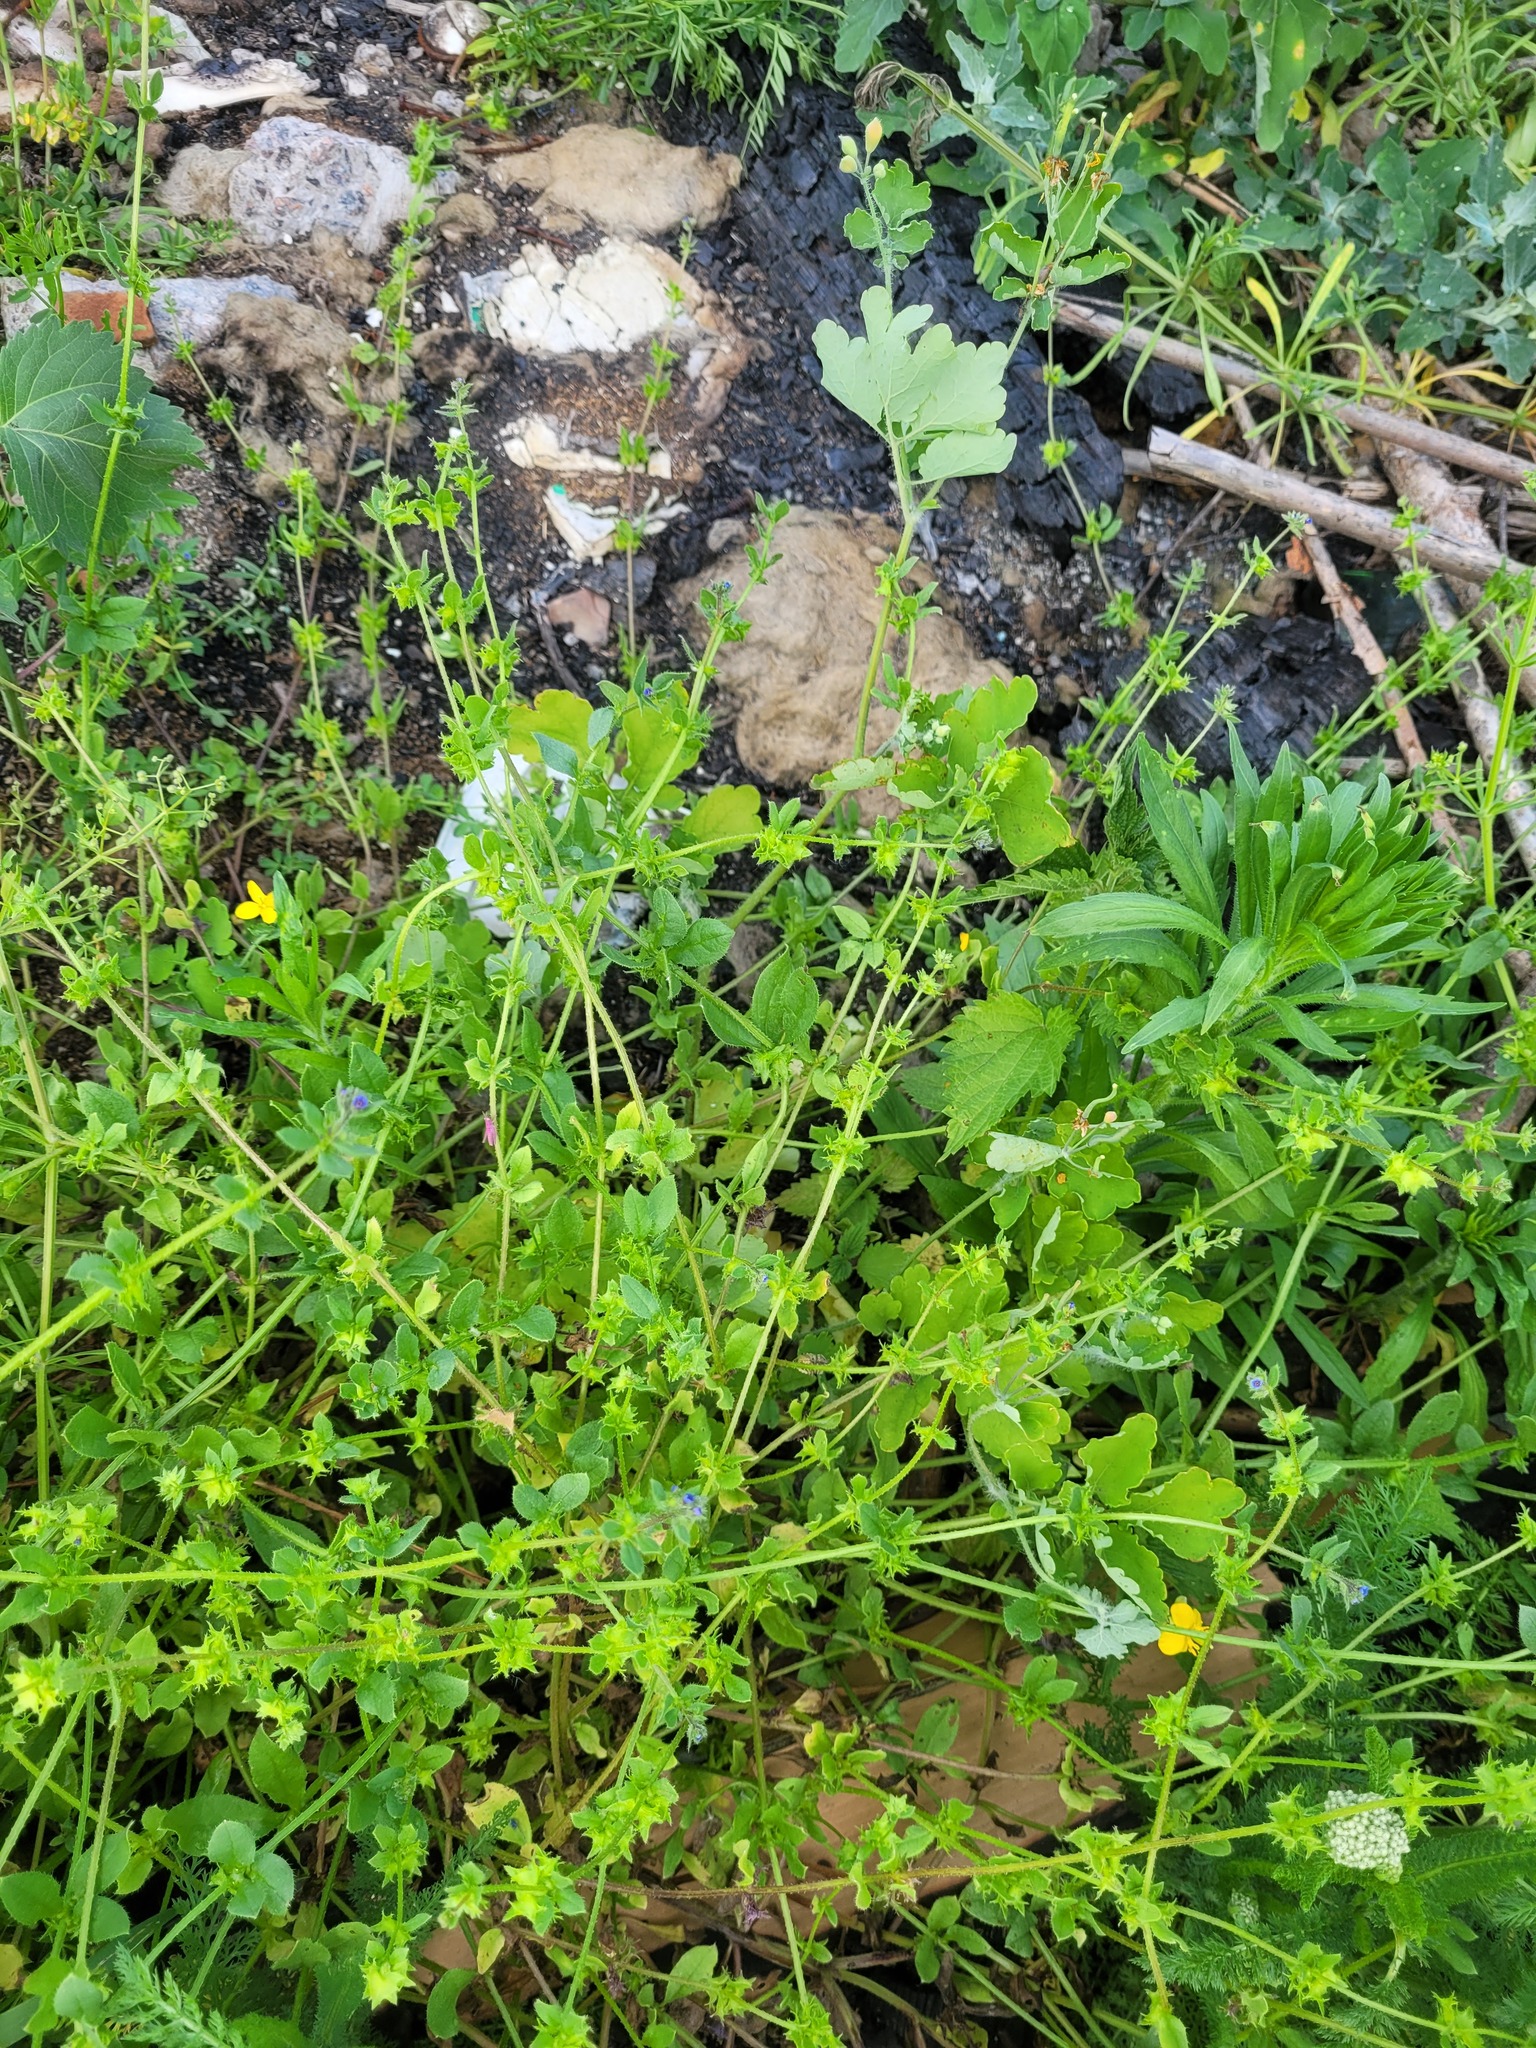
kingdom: Plantae
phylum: Tracheophyta
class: Magnoliopsida
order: Boraginales
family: Boraginaceae
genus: Asperugo
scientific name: Asperugo procumbens
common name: Madwort
